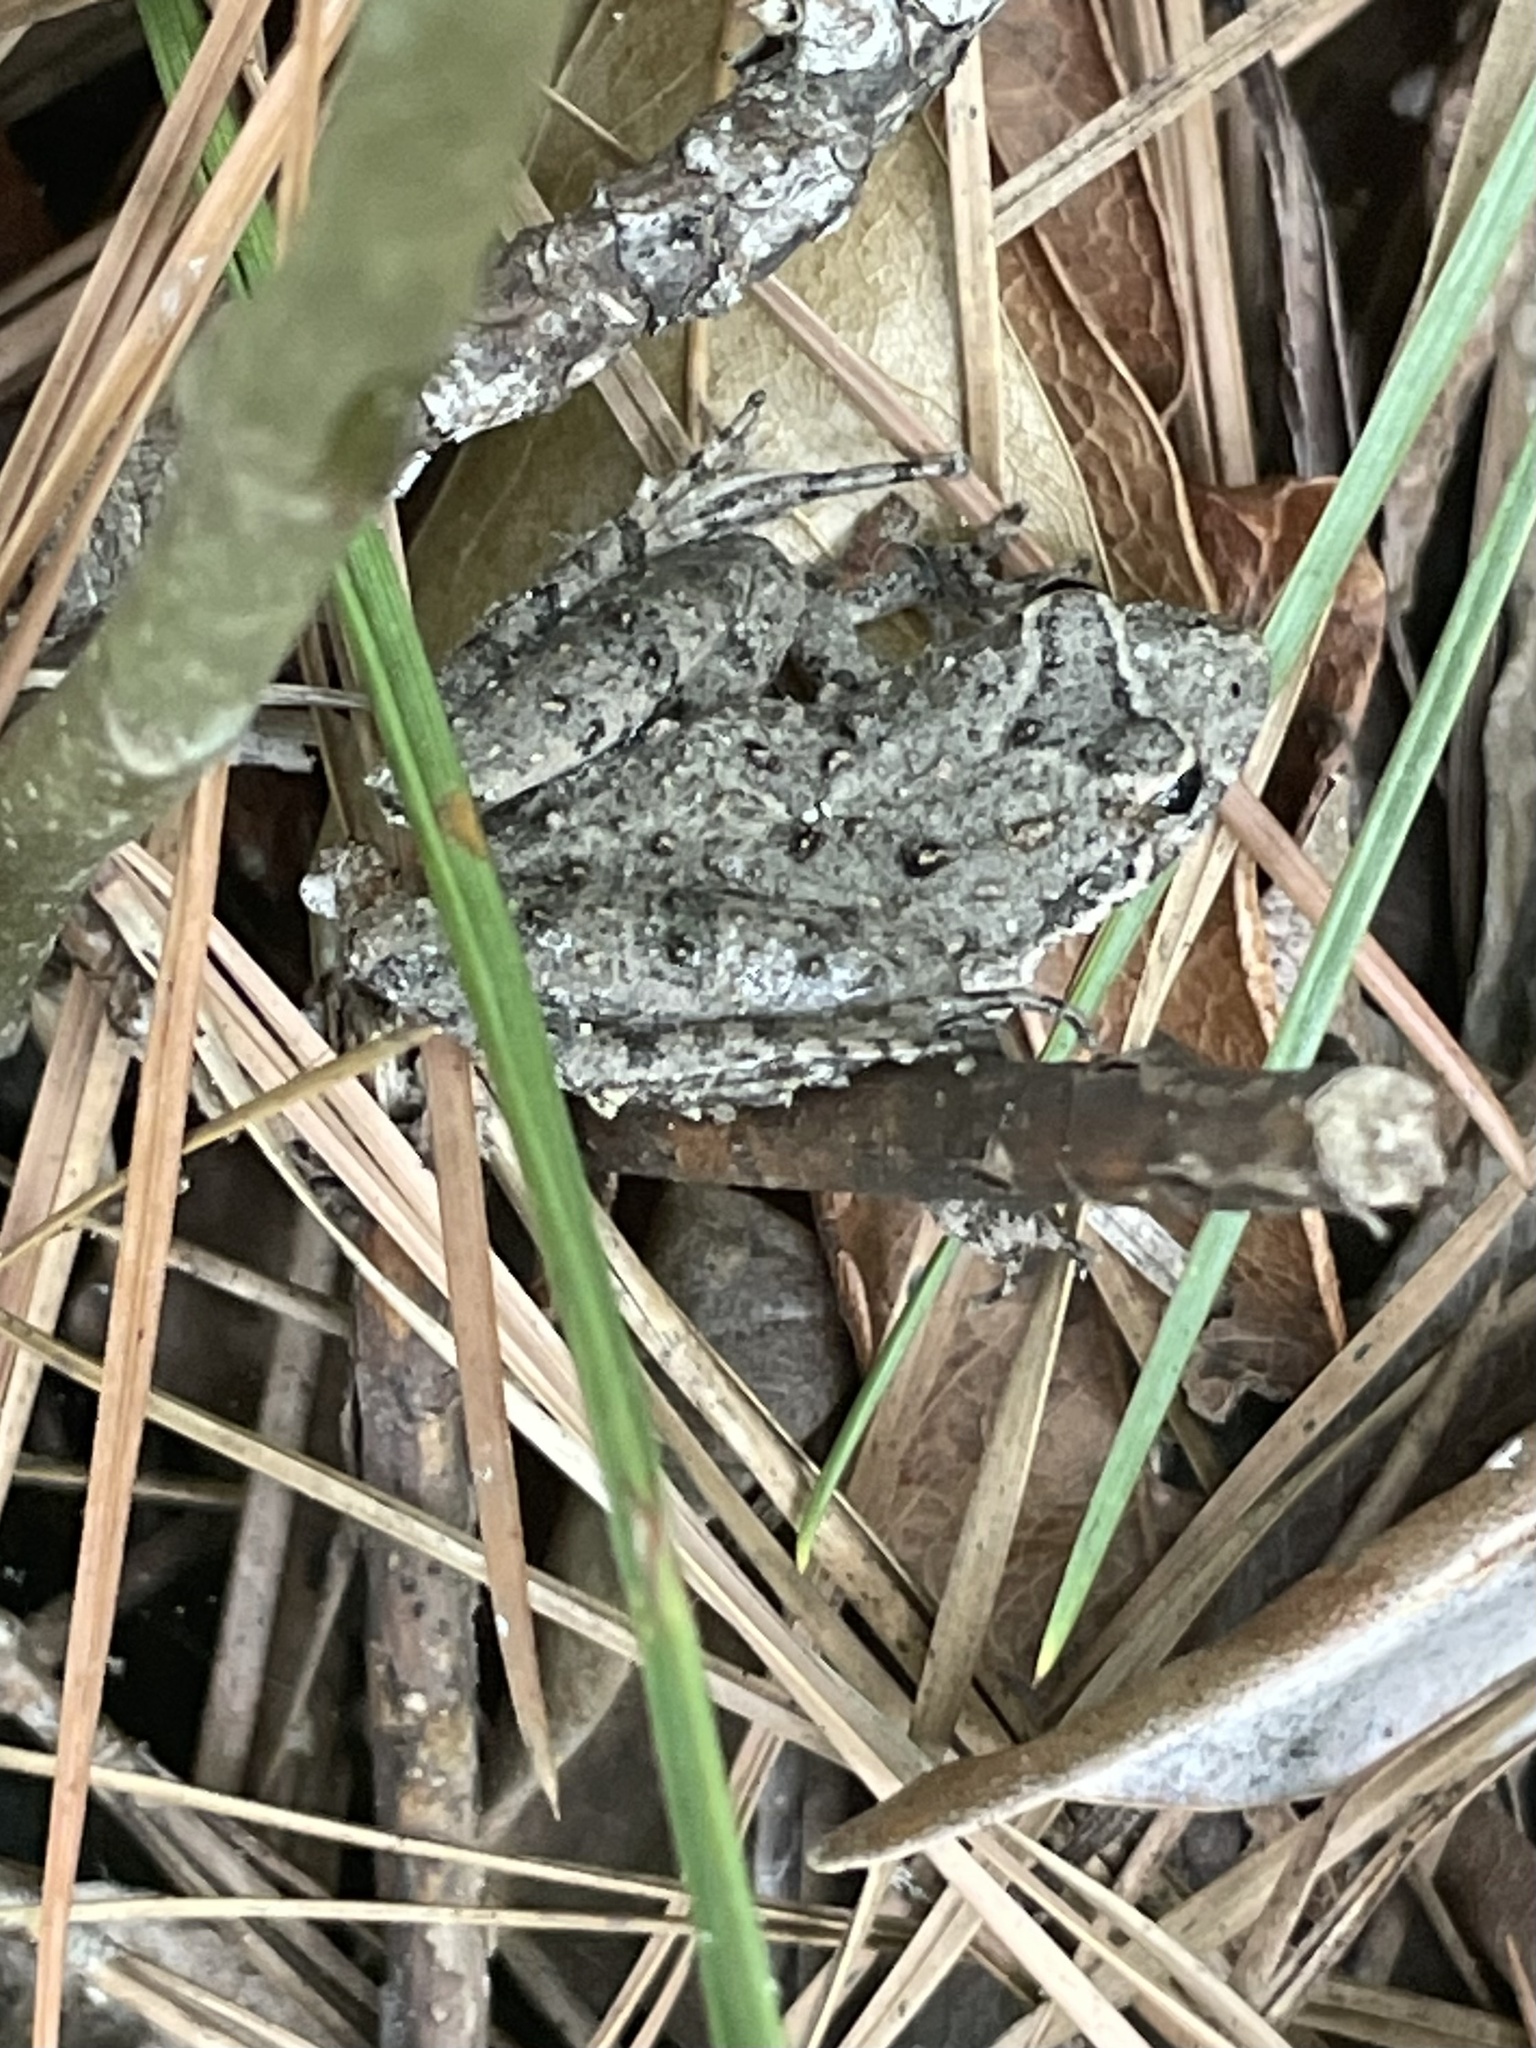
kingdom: Animalia
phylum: Chordata
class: Amphibia
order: Anura
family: Hylidae
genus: Acris
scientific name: Acris blanchardi
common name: Blanchard's cricket frog
